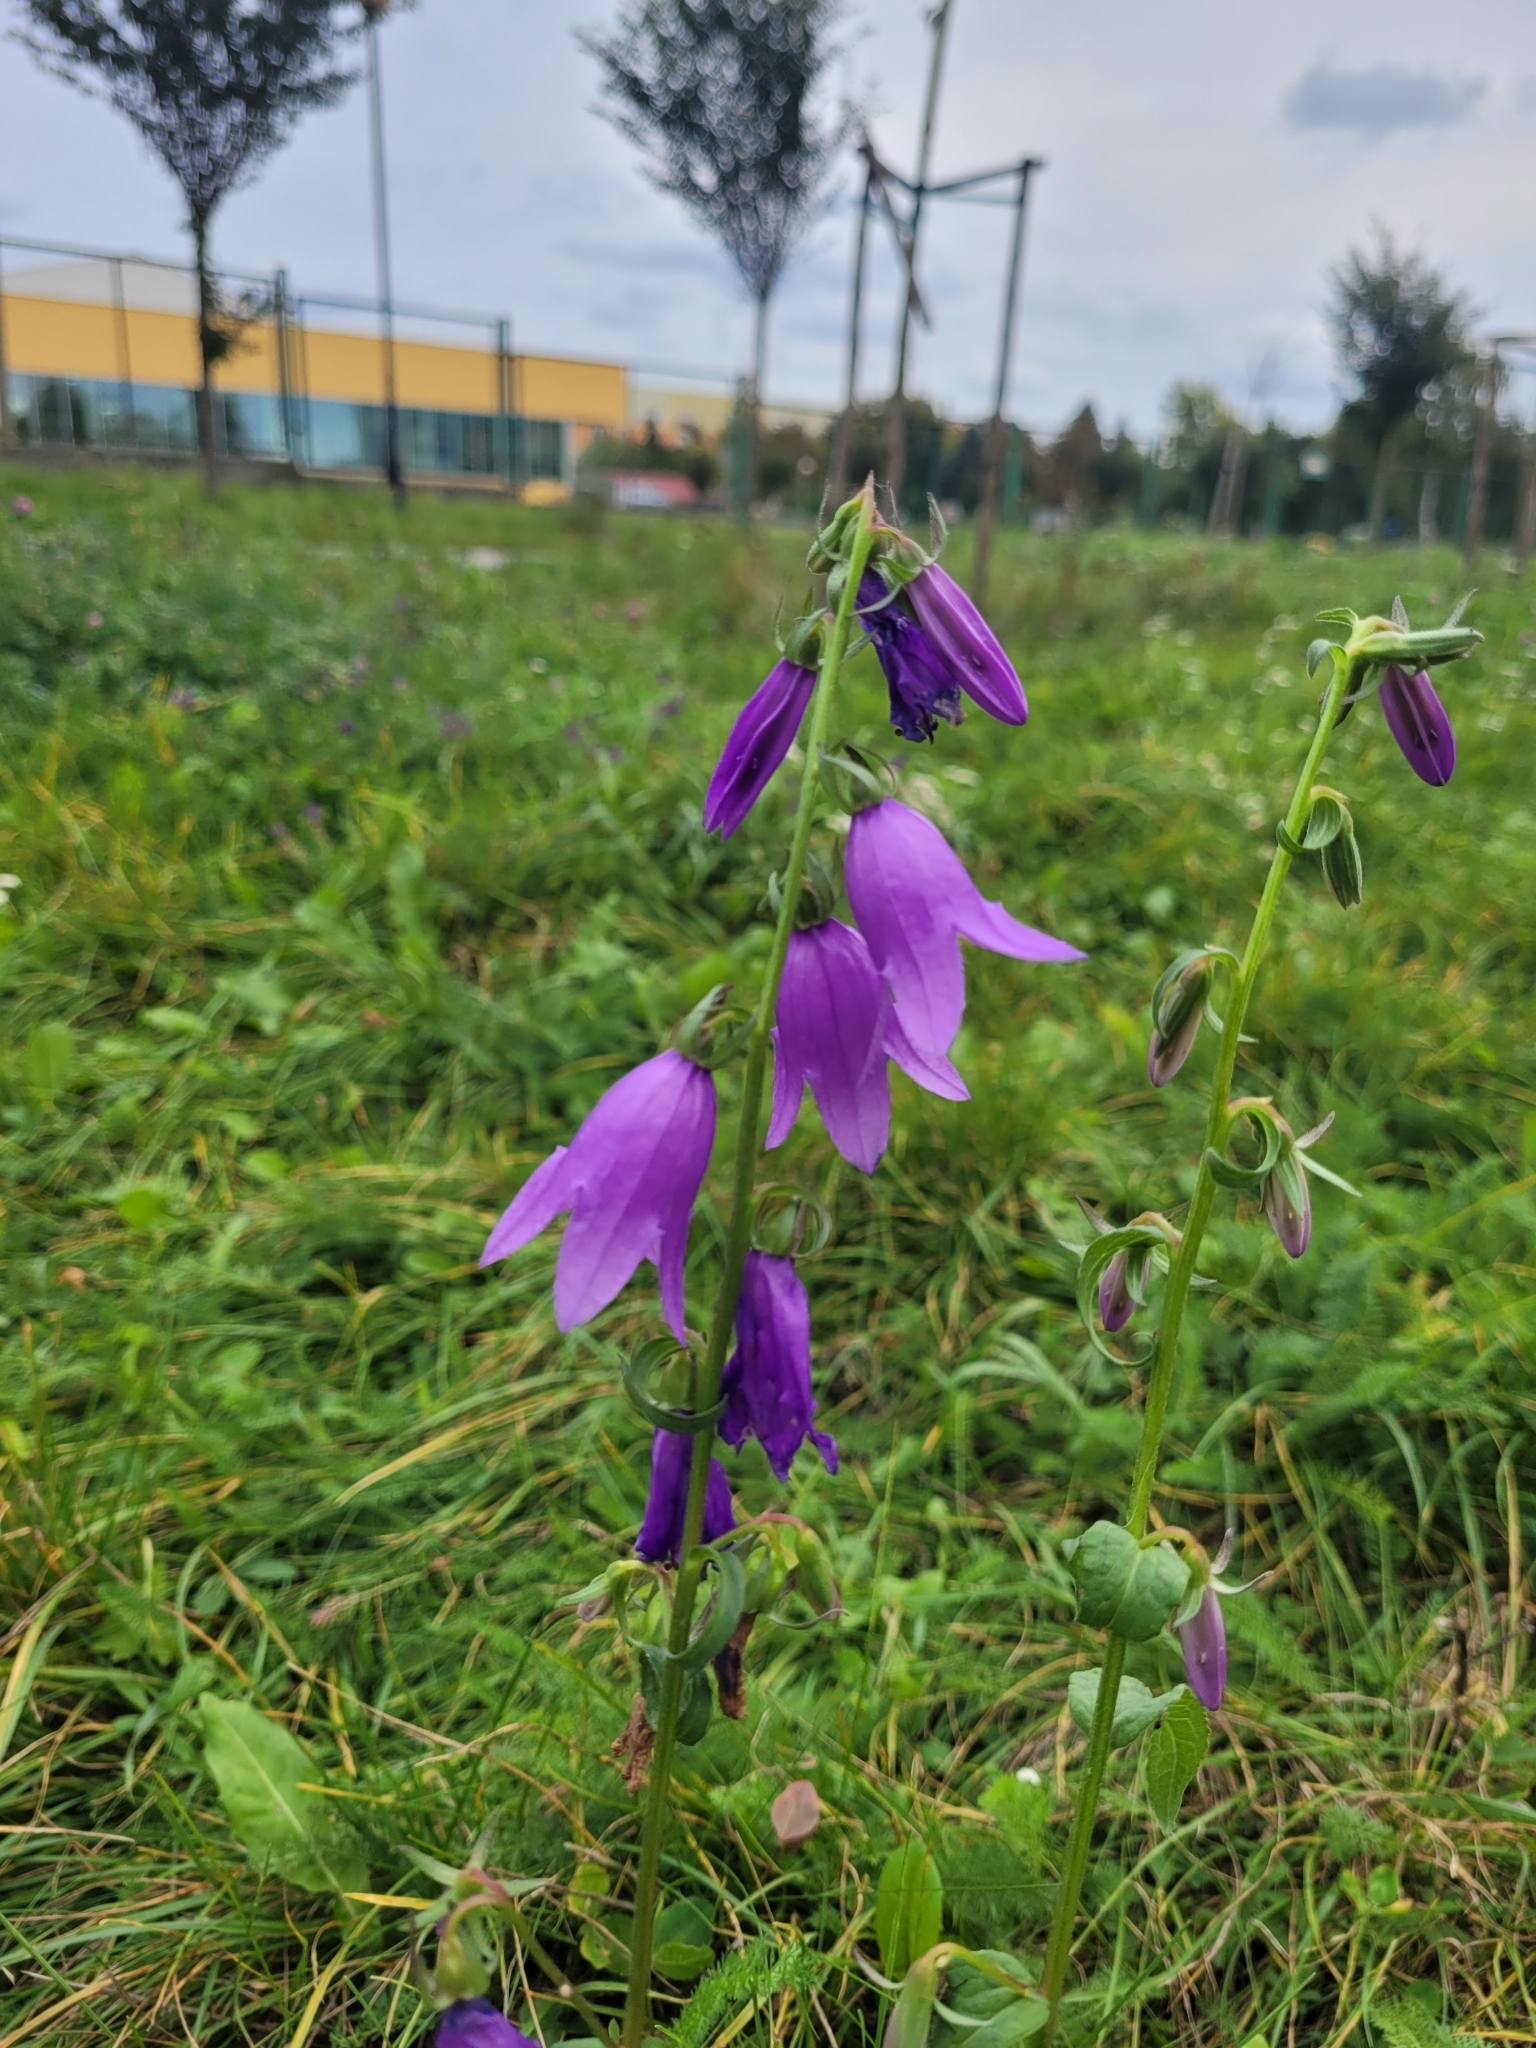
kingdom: Plantae
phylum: Tracheophyta
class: Magnoliopsida
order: Asterales
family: Campanulaceae
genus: Campanula
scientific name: Campanula rapunculoides
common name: Creeping bellflower
